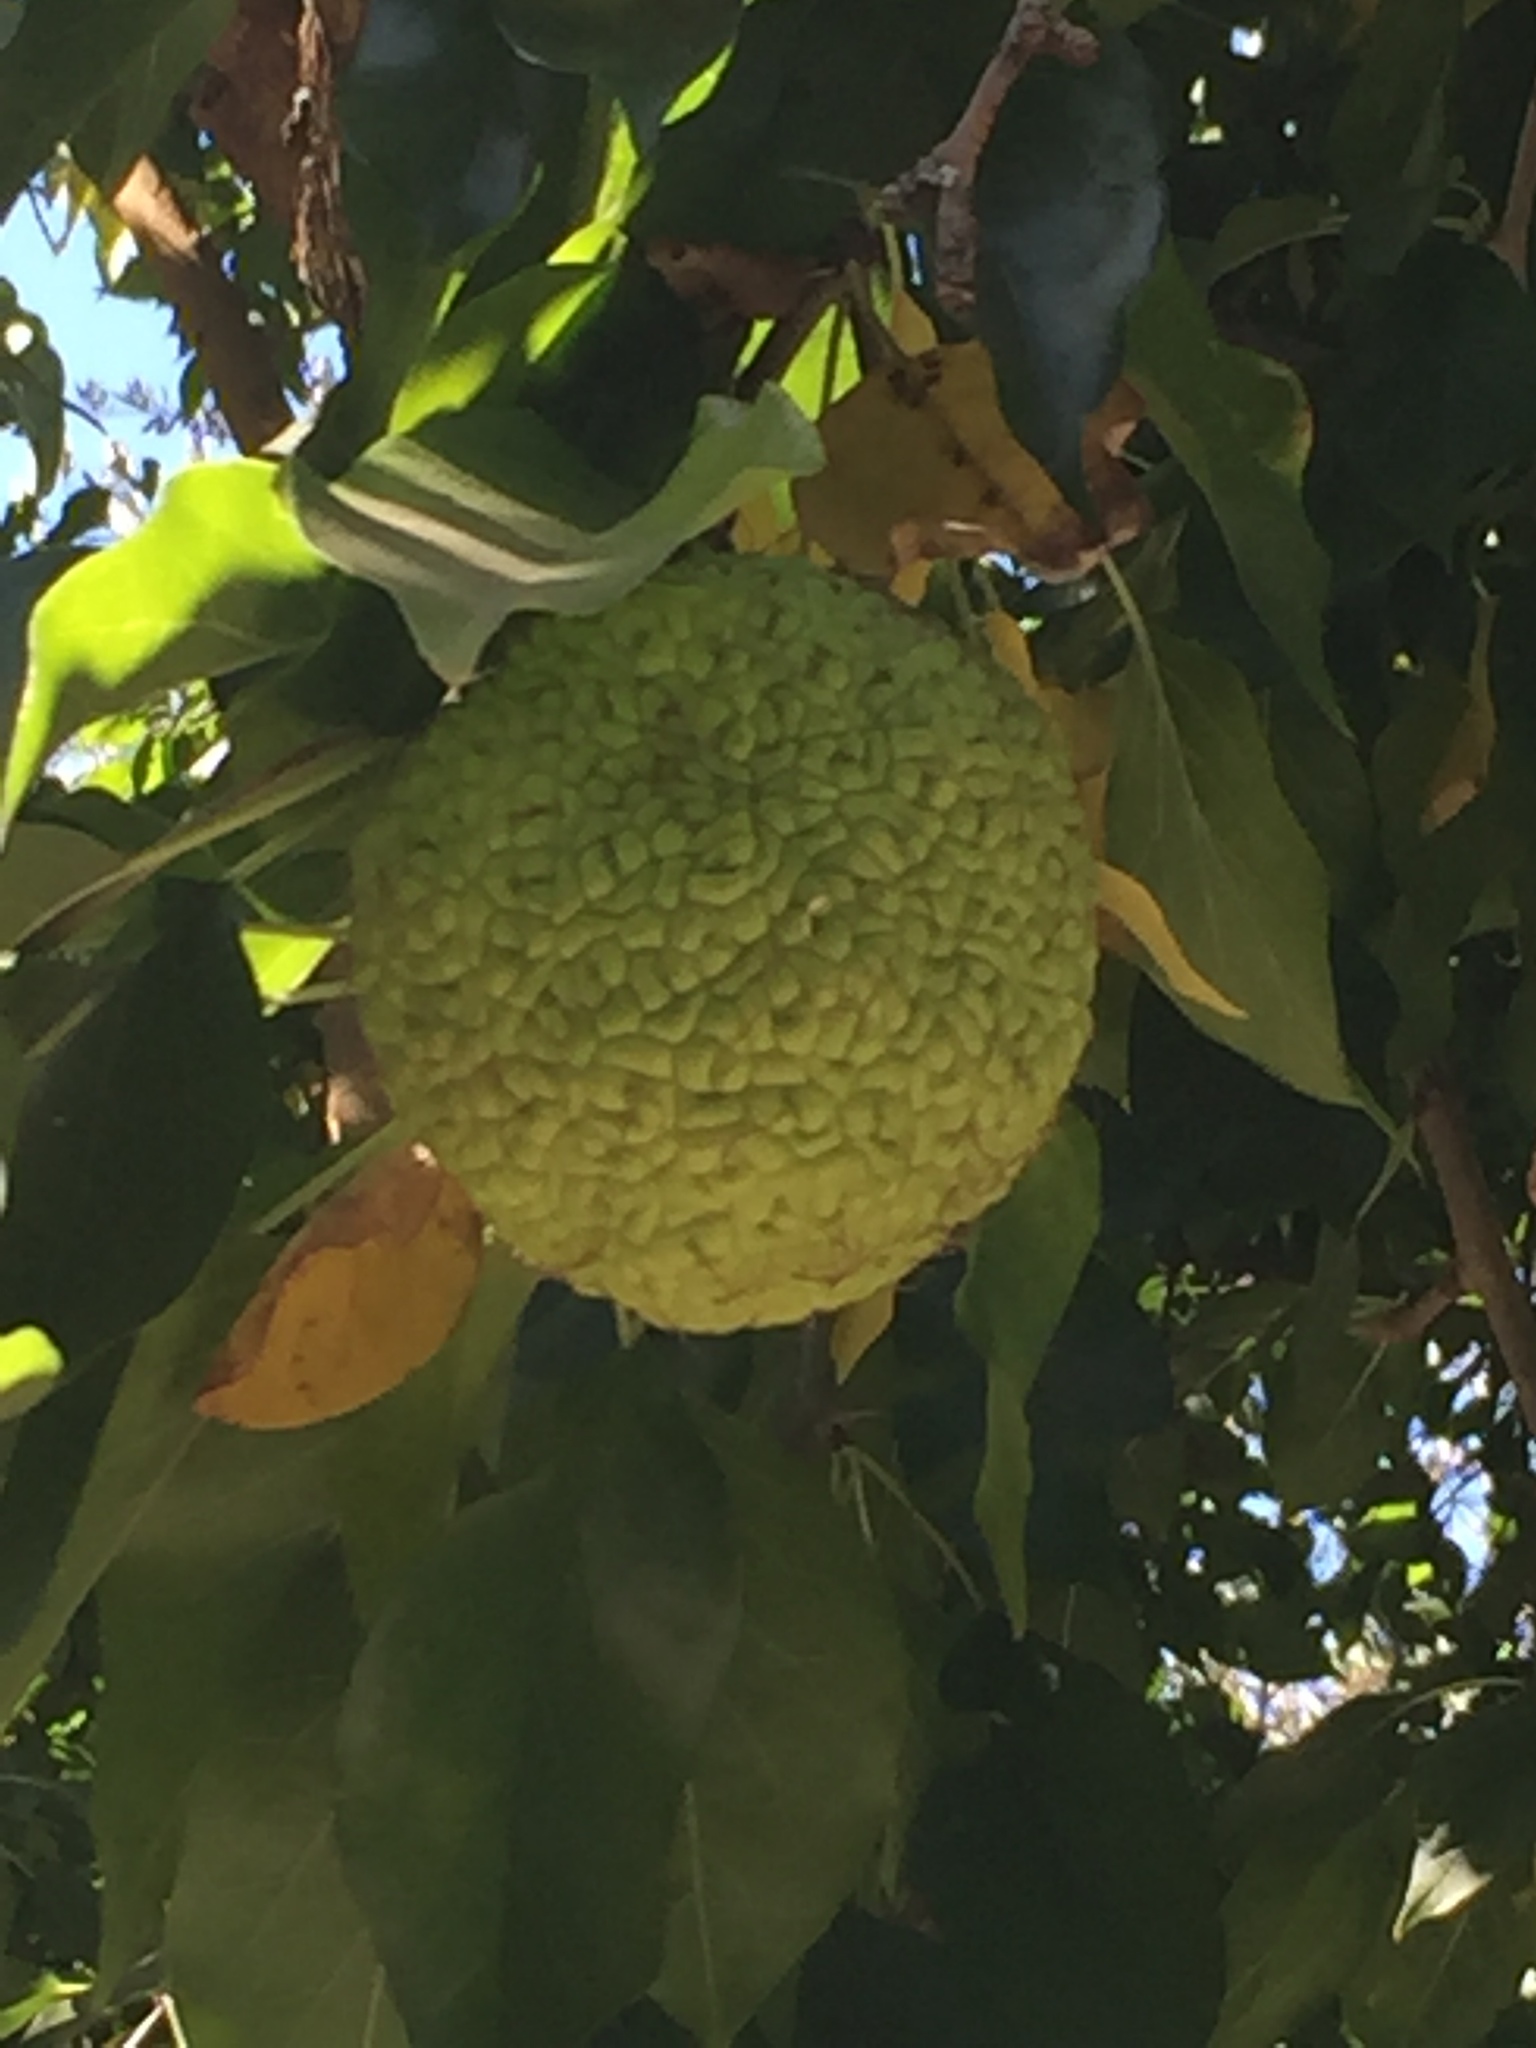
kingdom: Plantae
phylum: Tracheophyta
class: Magnoliopsida
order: Rosales
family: Moraceae
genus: Maclura
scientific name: Maclura pomifera
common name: Osage-orange
